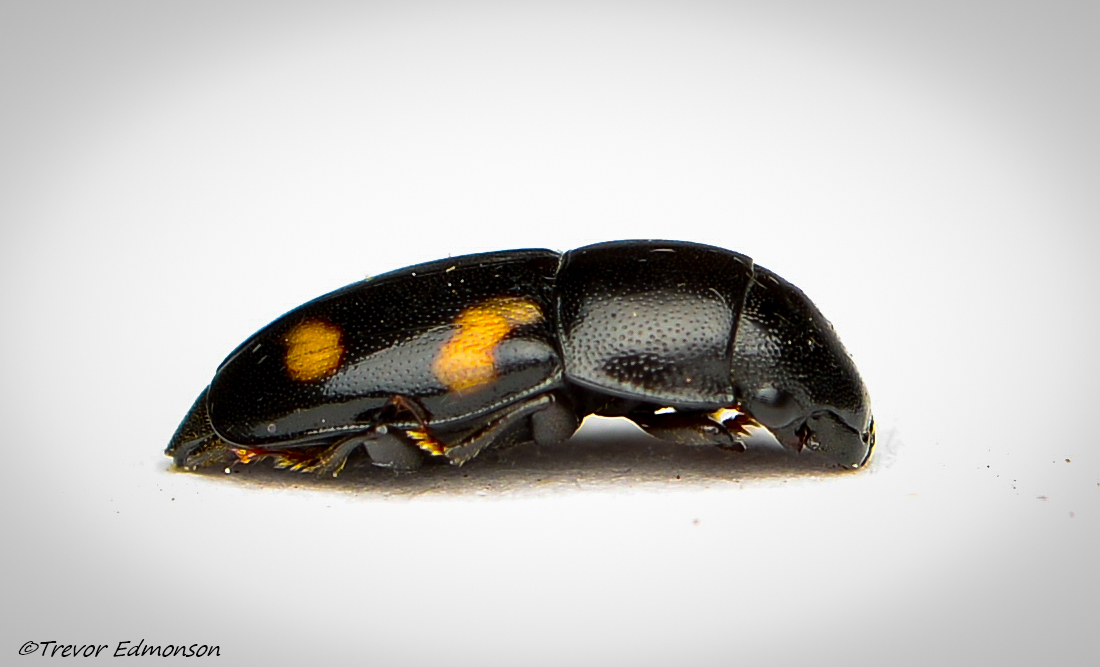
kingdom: Animalia
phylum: Arthropoda
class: Insecta
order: Coleoptera
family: Nitidulidae
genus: Glischrochilus
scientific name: Glischrochilus quadrisignatus
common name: Picnic beetle
